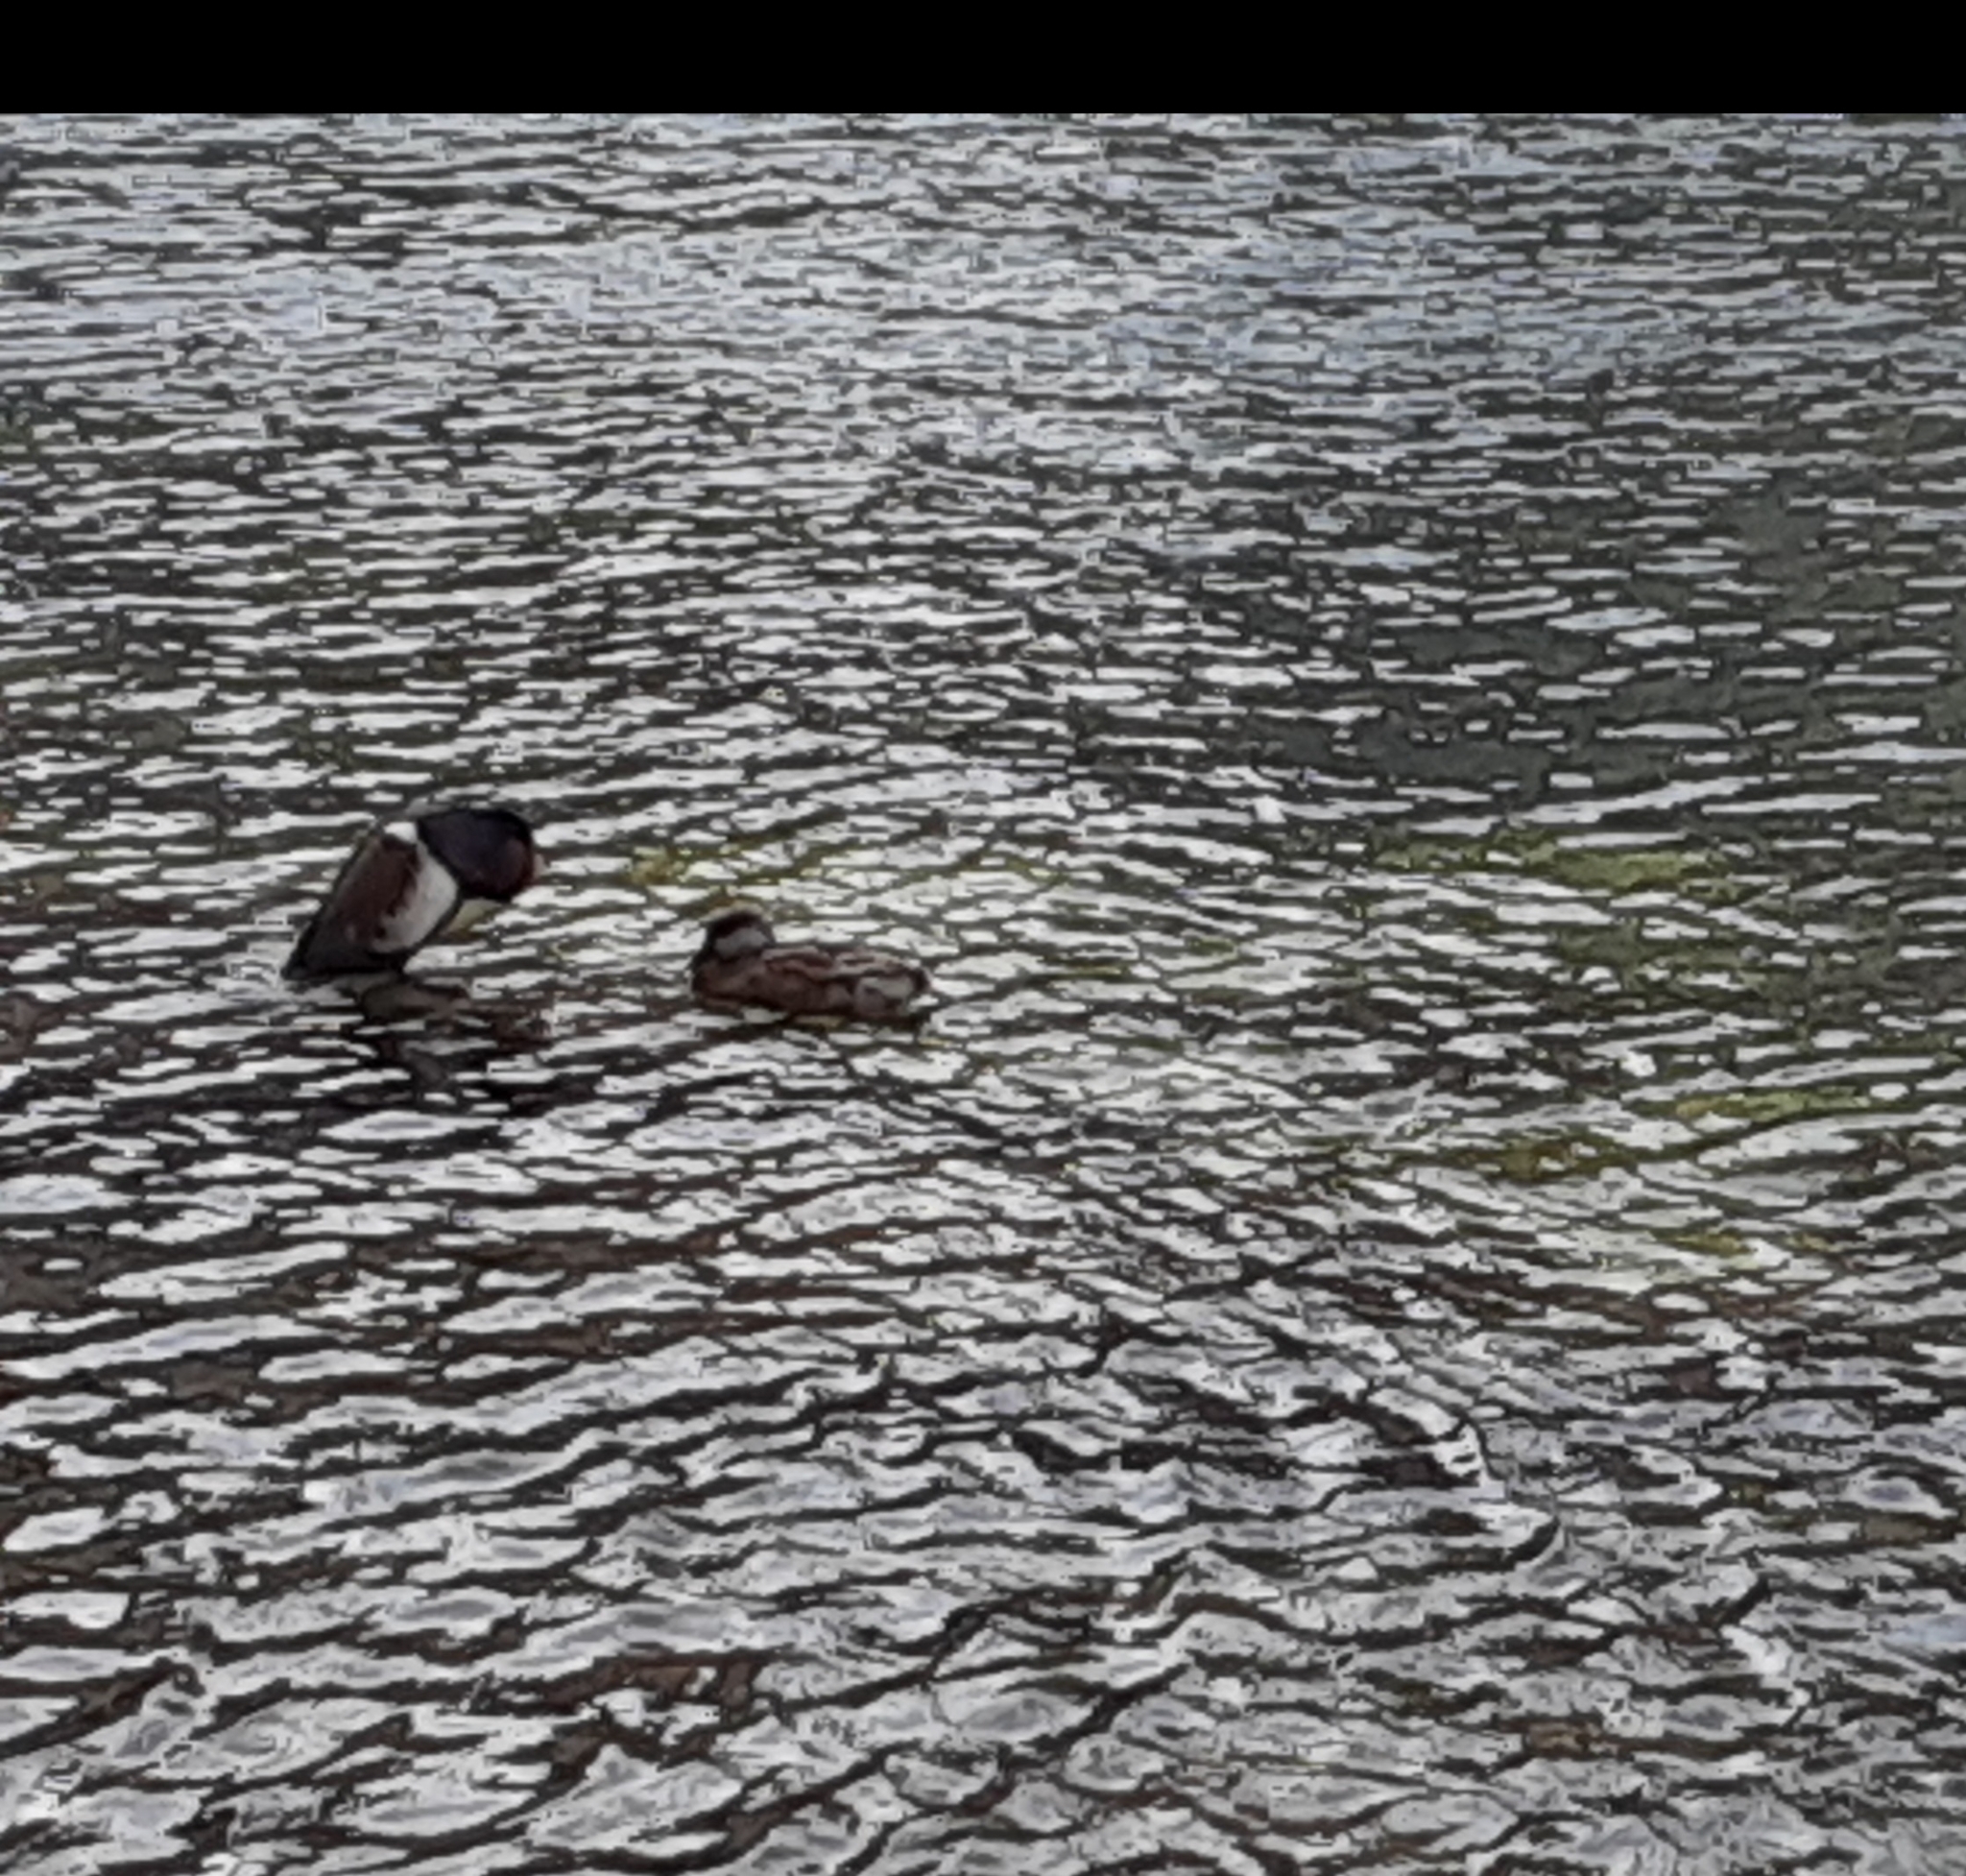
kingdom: Animalia
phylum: Chordata
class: Aves
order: Anseriformes
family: Anatidae
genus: Netta
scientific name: Netta rufina
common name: Red-crested pochard
